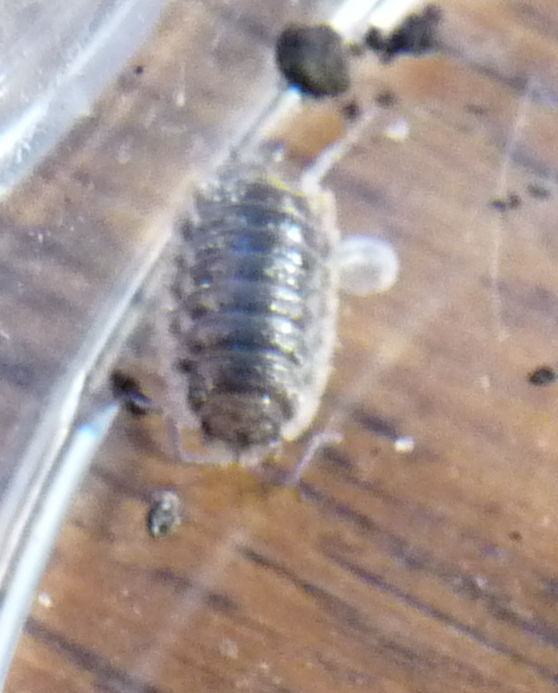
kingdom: Animalia
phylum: Arthropoda
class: Malacostraca
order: Isopoda
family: Oniscidae
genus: Oniscus
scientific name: Oniscus asellus
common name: Common shiny woodlouse
